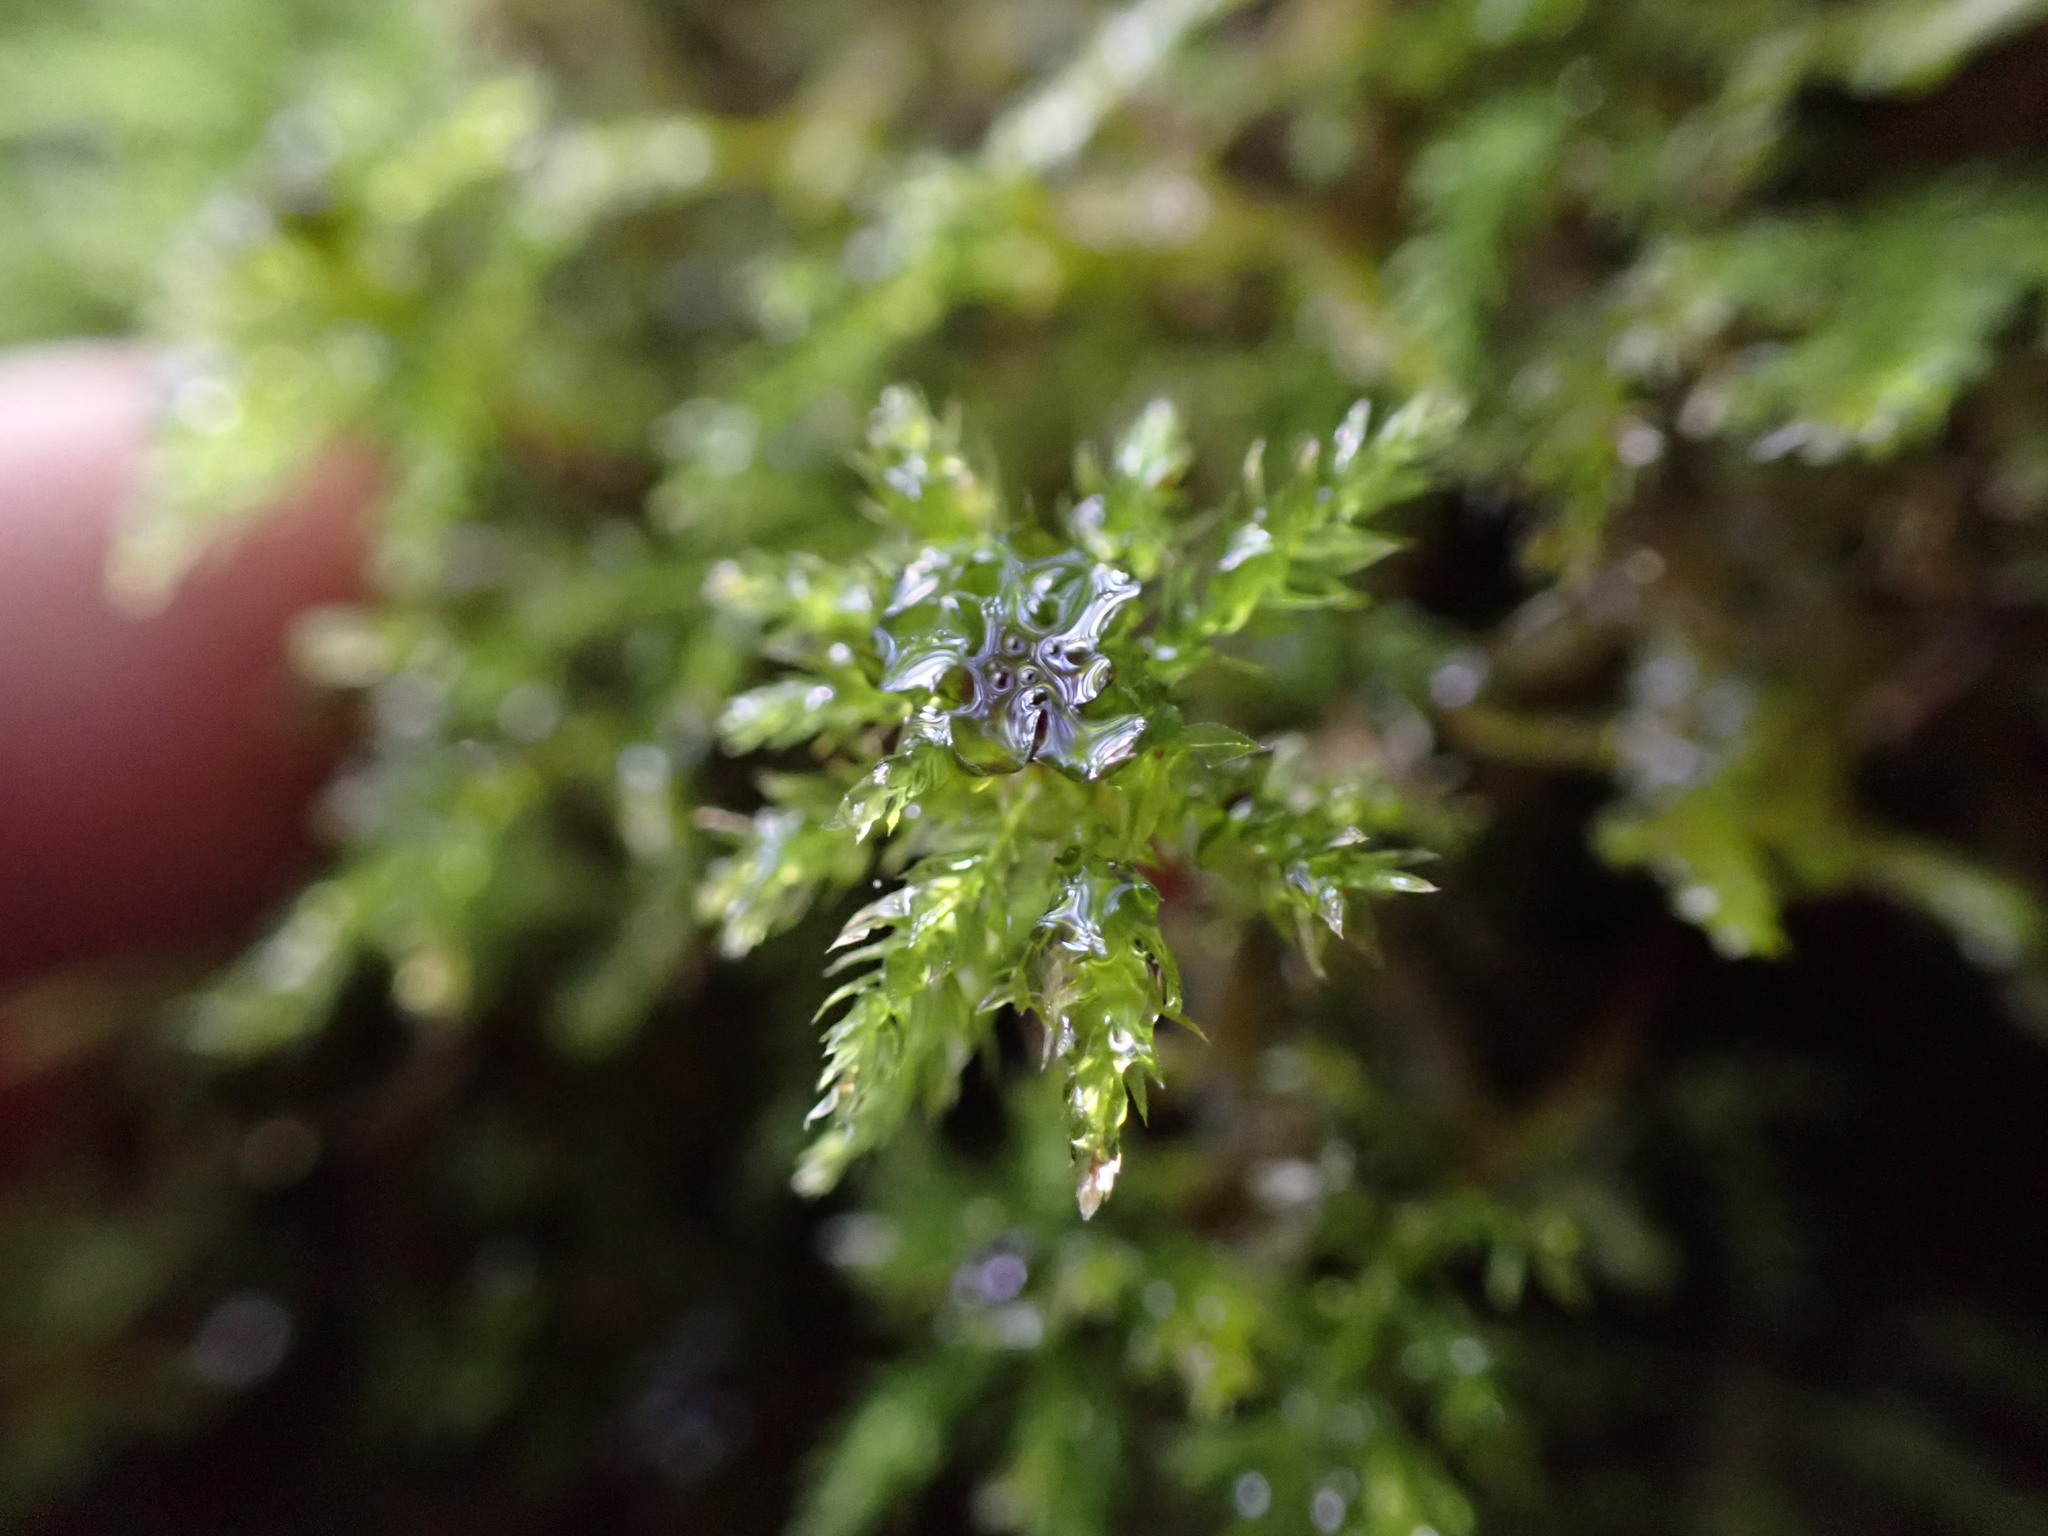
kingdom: Plantae
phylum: Bryophyta
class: Bryopsida
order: Bryales
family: Mniaceae
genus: Leucolepis
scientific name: Leucolepis acanthoneura
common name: Leucolepis umbrella moss
